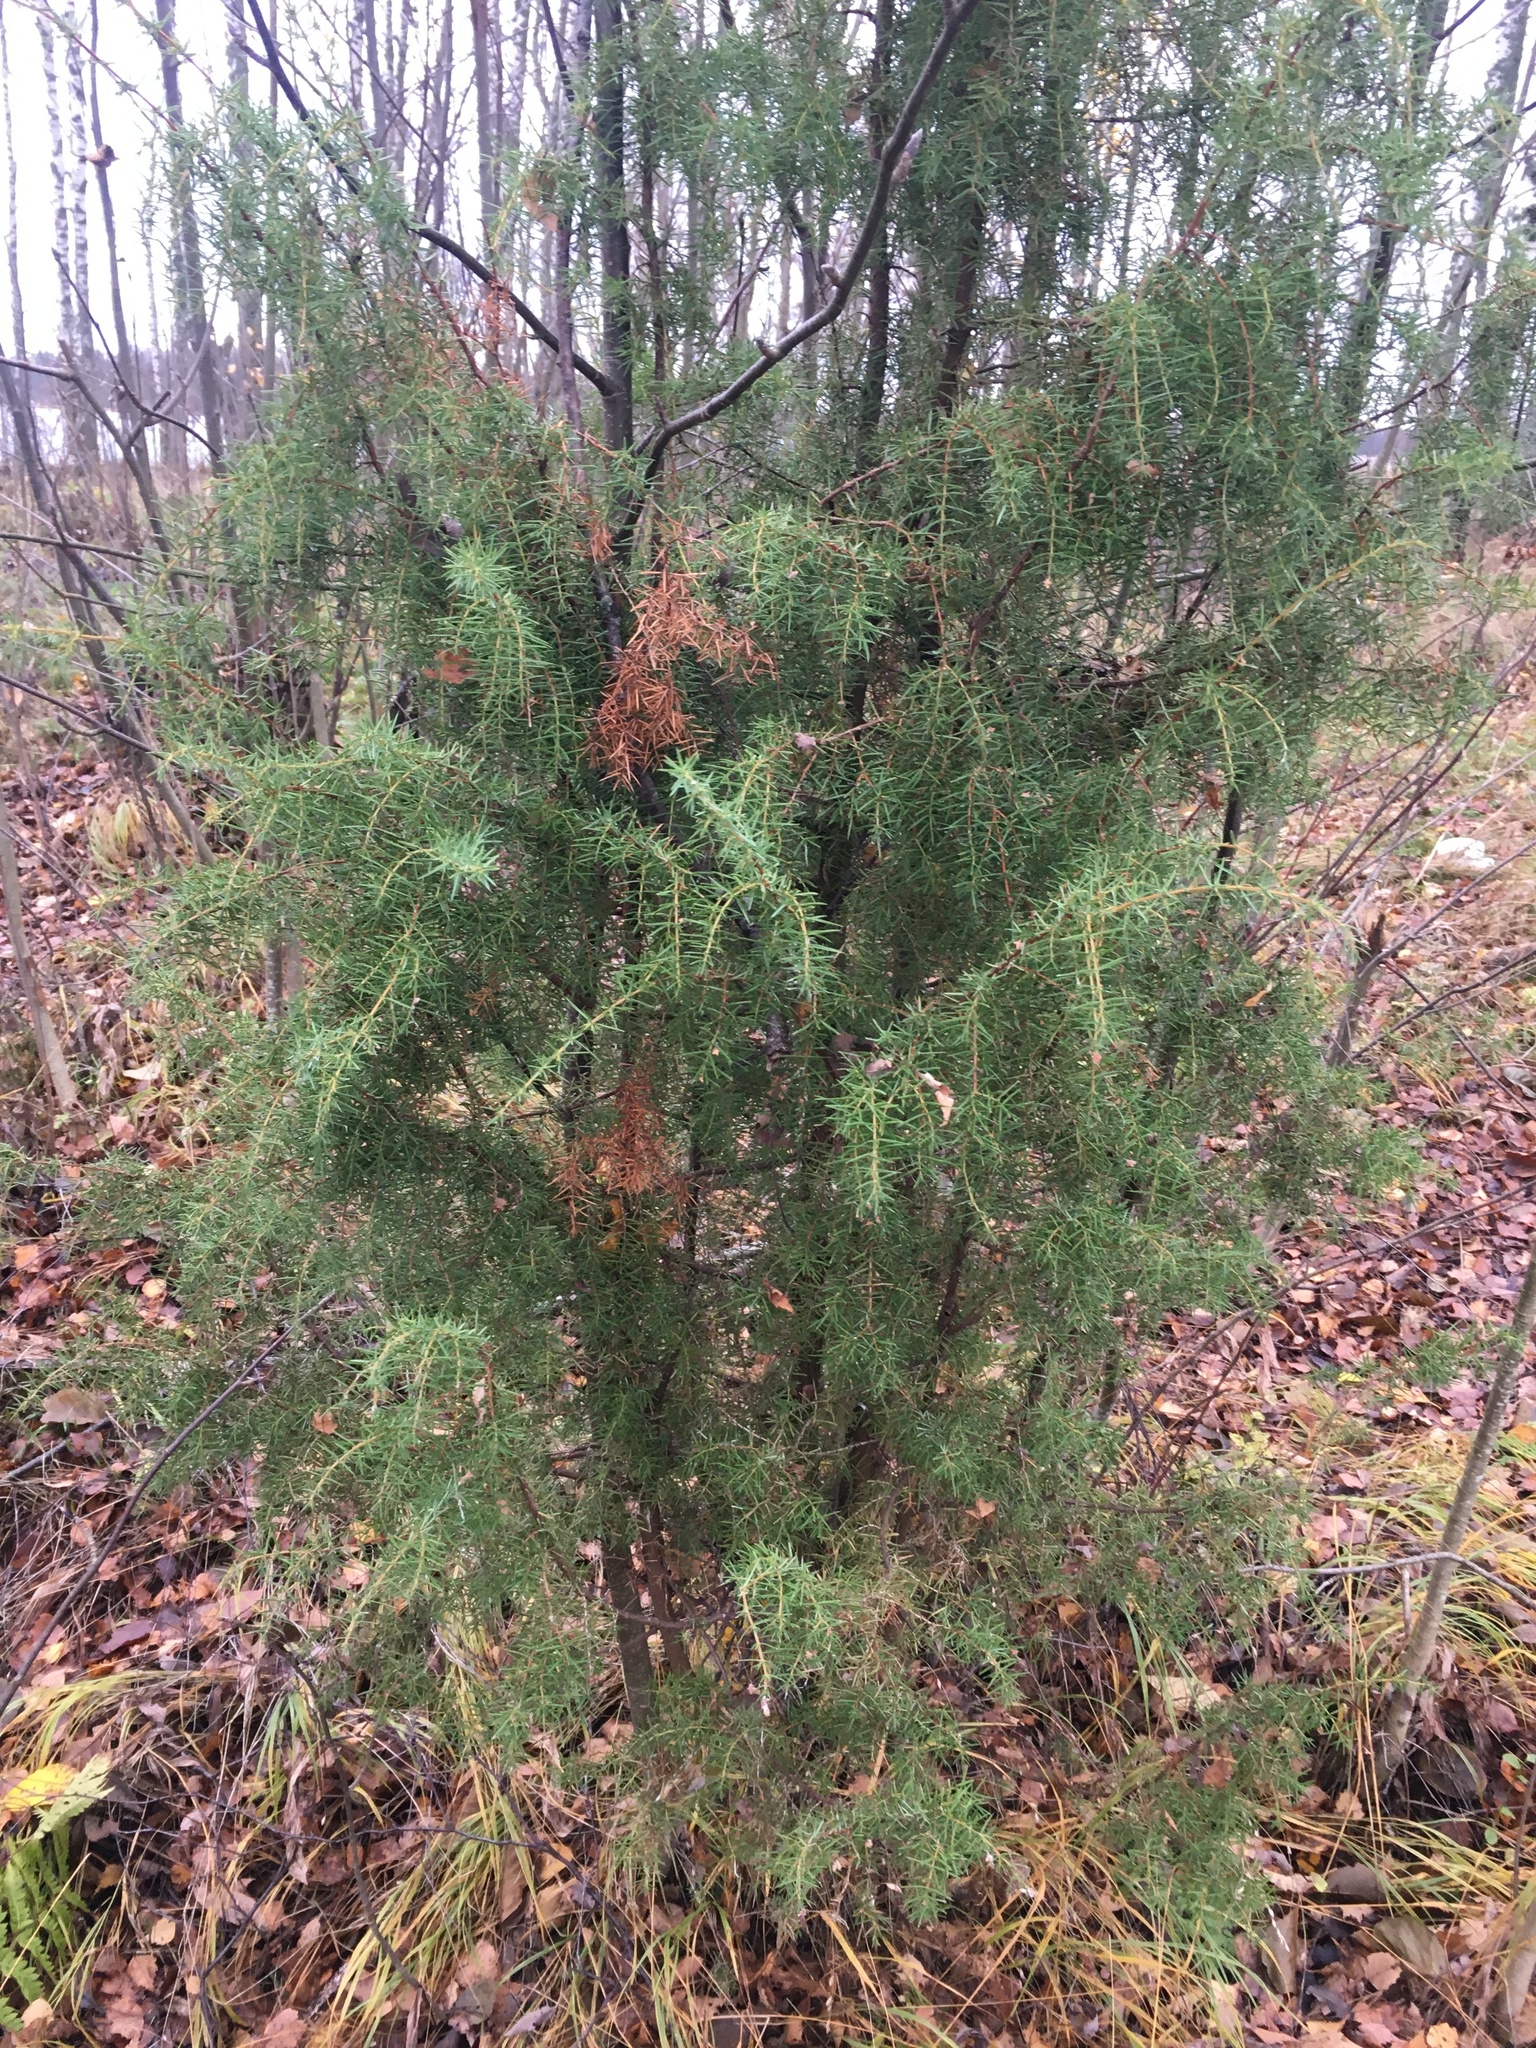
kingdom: Plantae
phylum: Tracheophyta
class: Pinopsida
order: Pinales
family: Cupressaceae
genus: Juniperus
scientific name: Juniperus communis
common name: Common juniper
